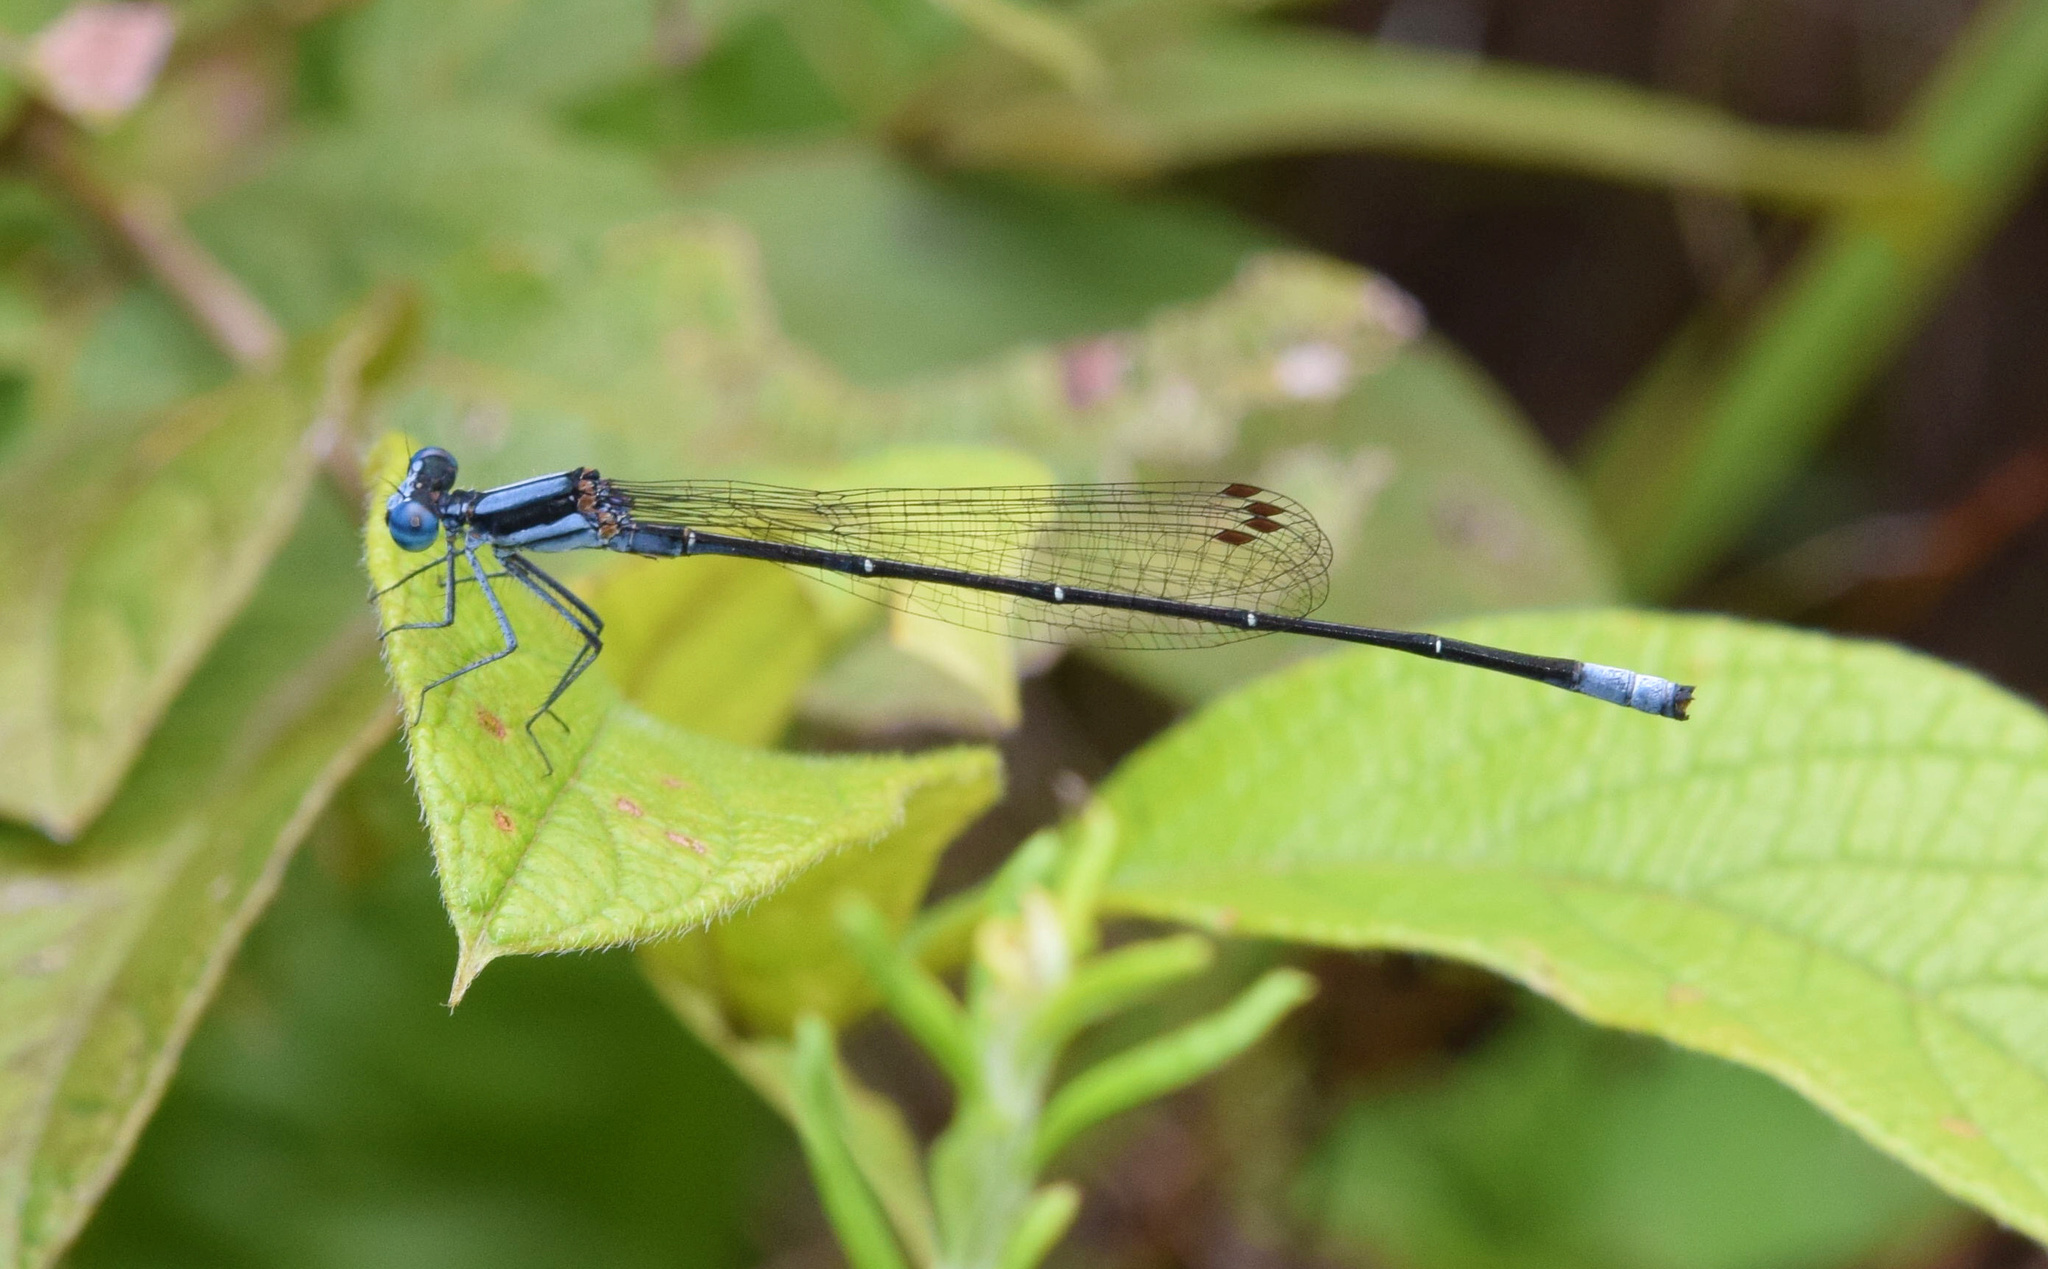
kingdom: Animalia
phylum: Arthropoda
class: Insecta
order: Odonata
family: Platycnemididae
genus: Elattoneura
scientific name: Elattoneura glauca
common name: Common threadtail
